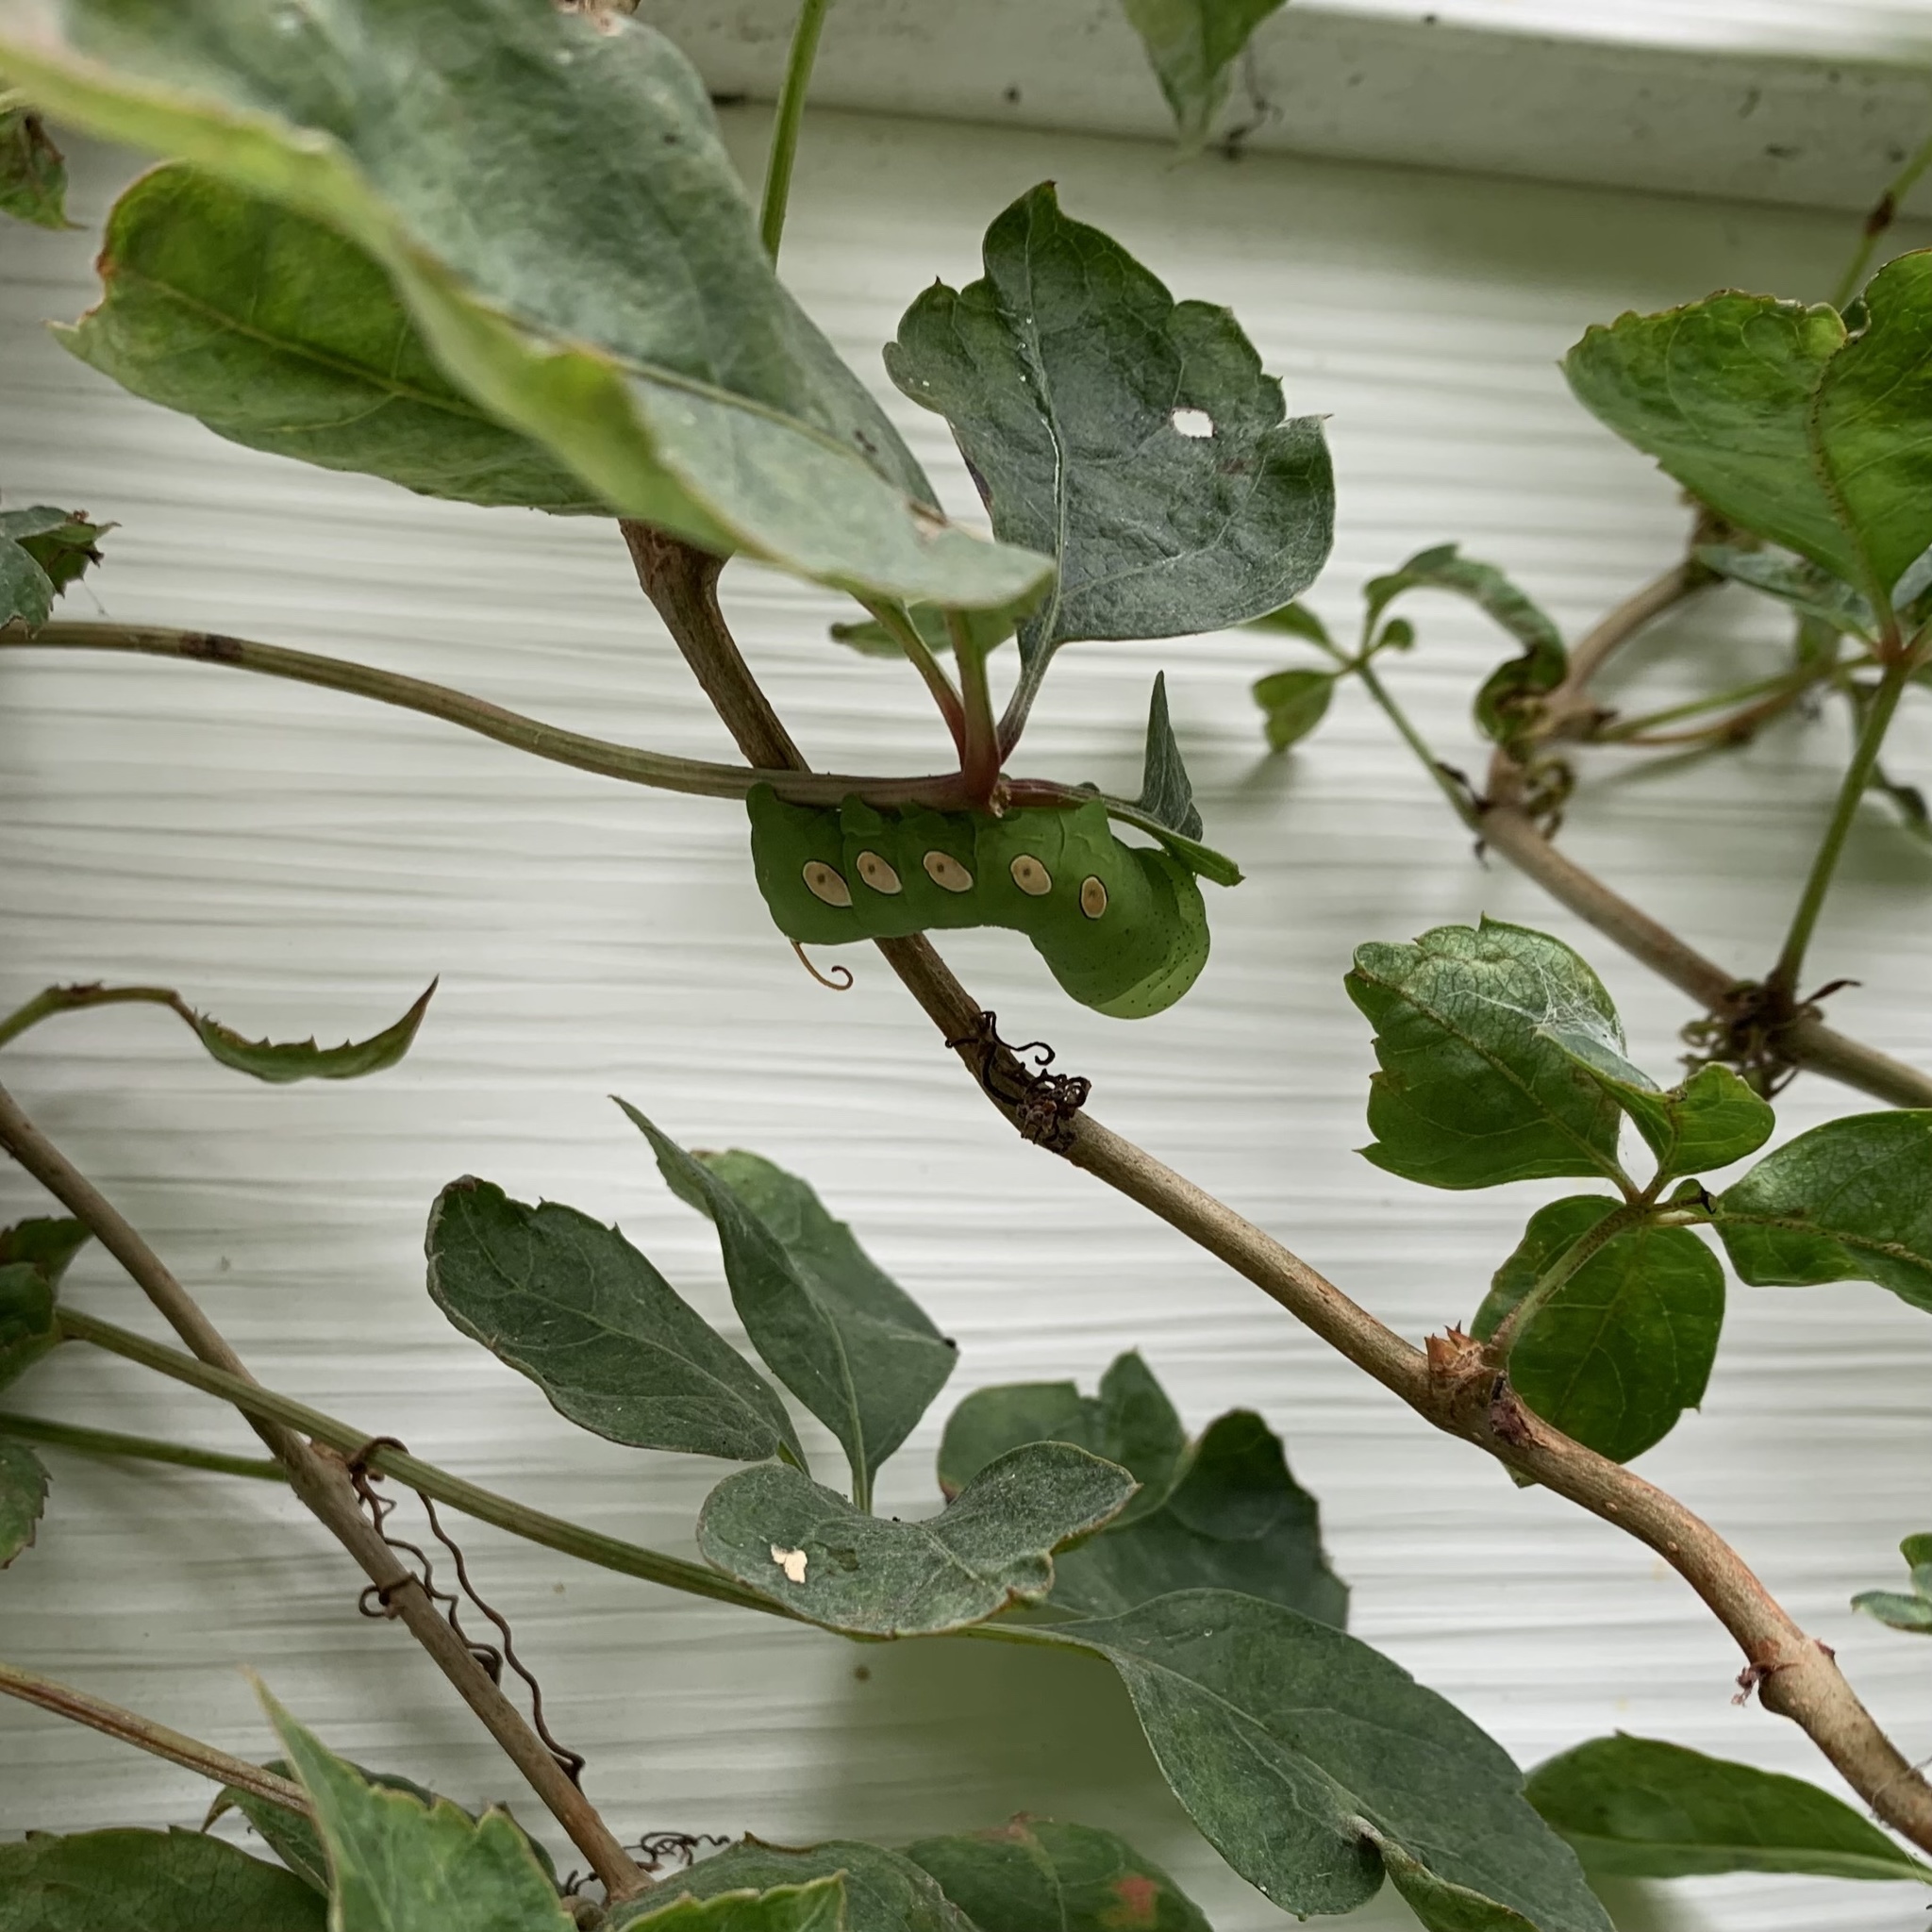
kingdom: Animalia
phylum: Arthropoda
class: Insecta
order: Lepidoptera
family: Sphingidae
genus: Eumorpha
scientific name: Eumorpha pandorus
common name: Pandora sphinx
